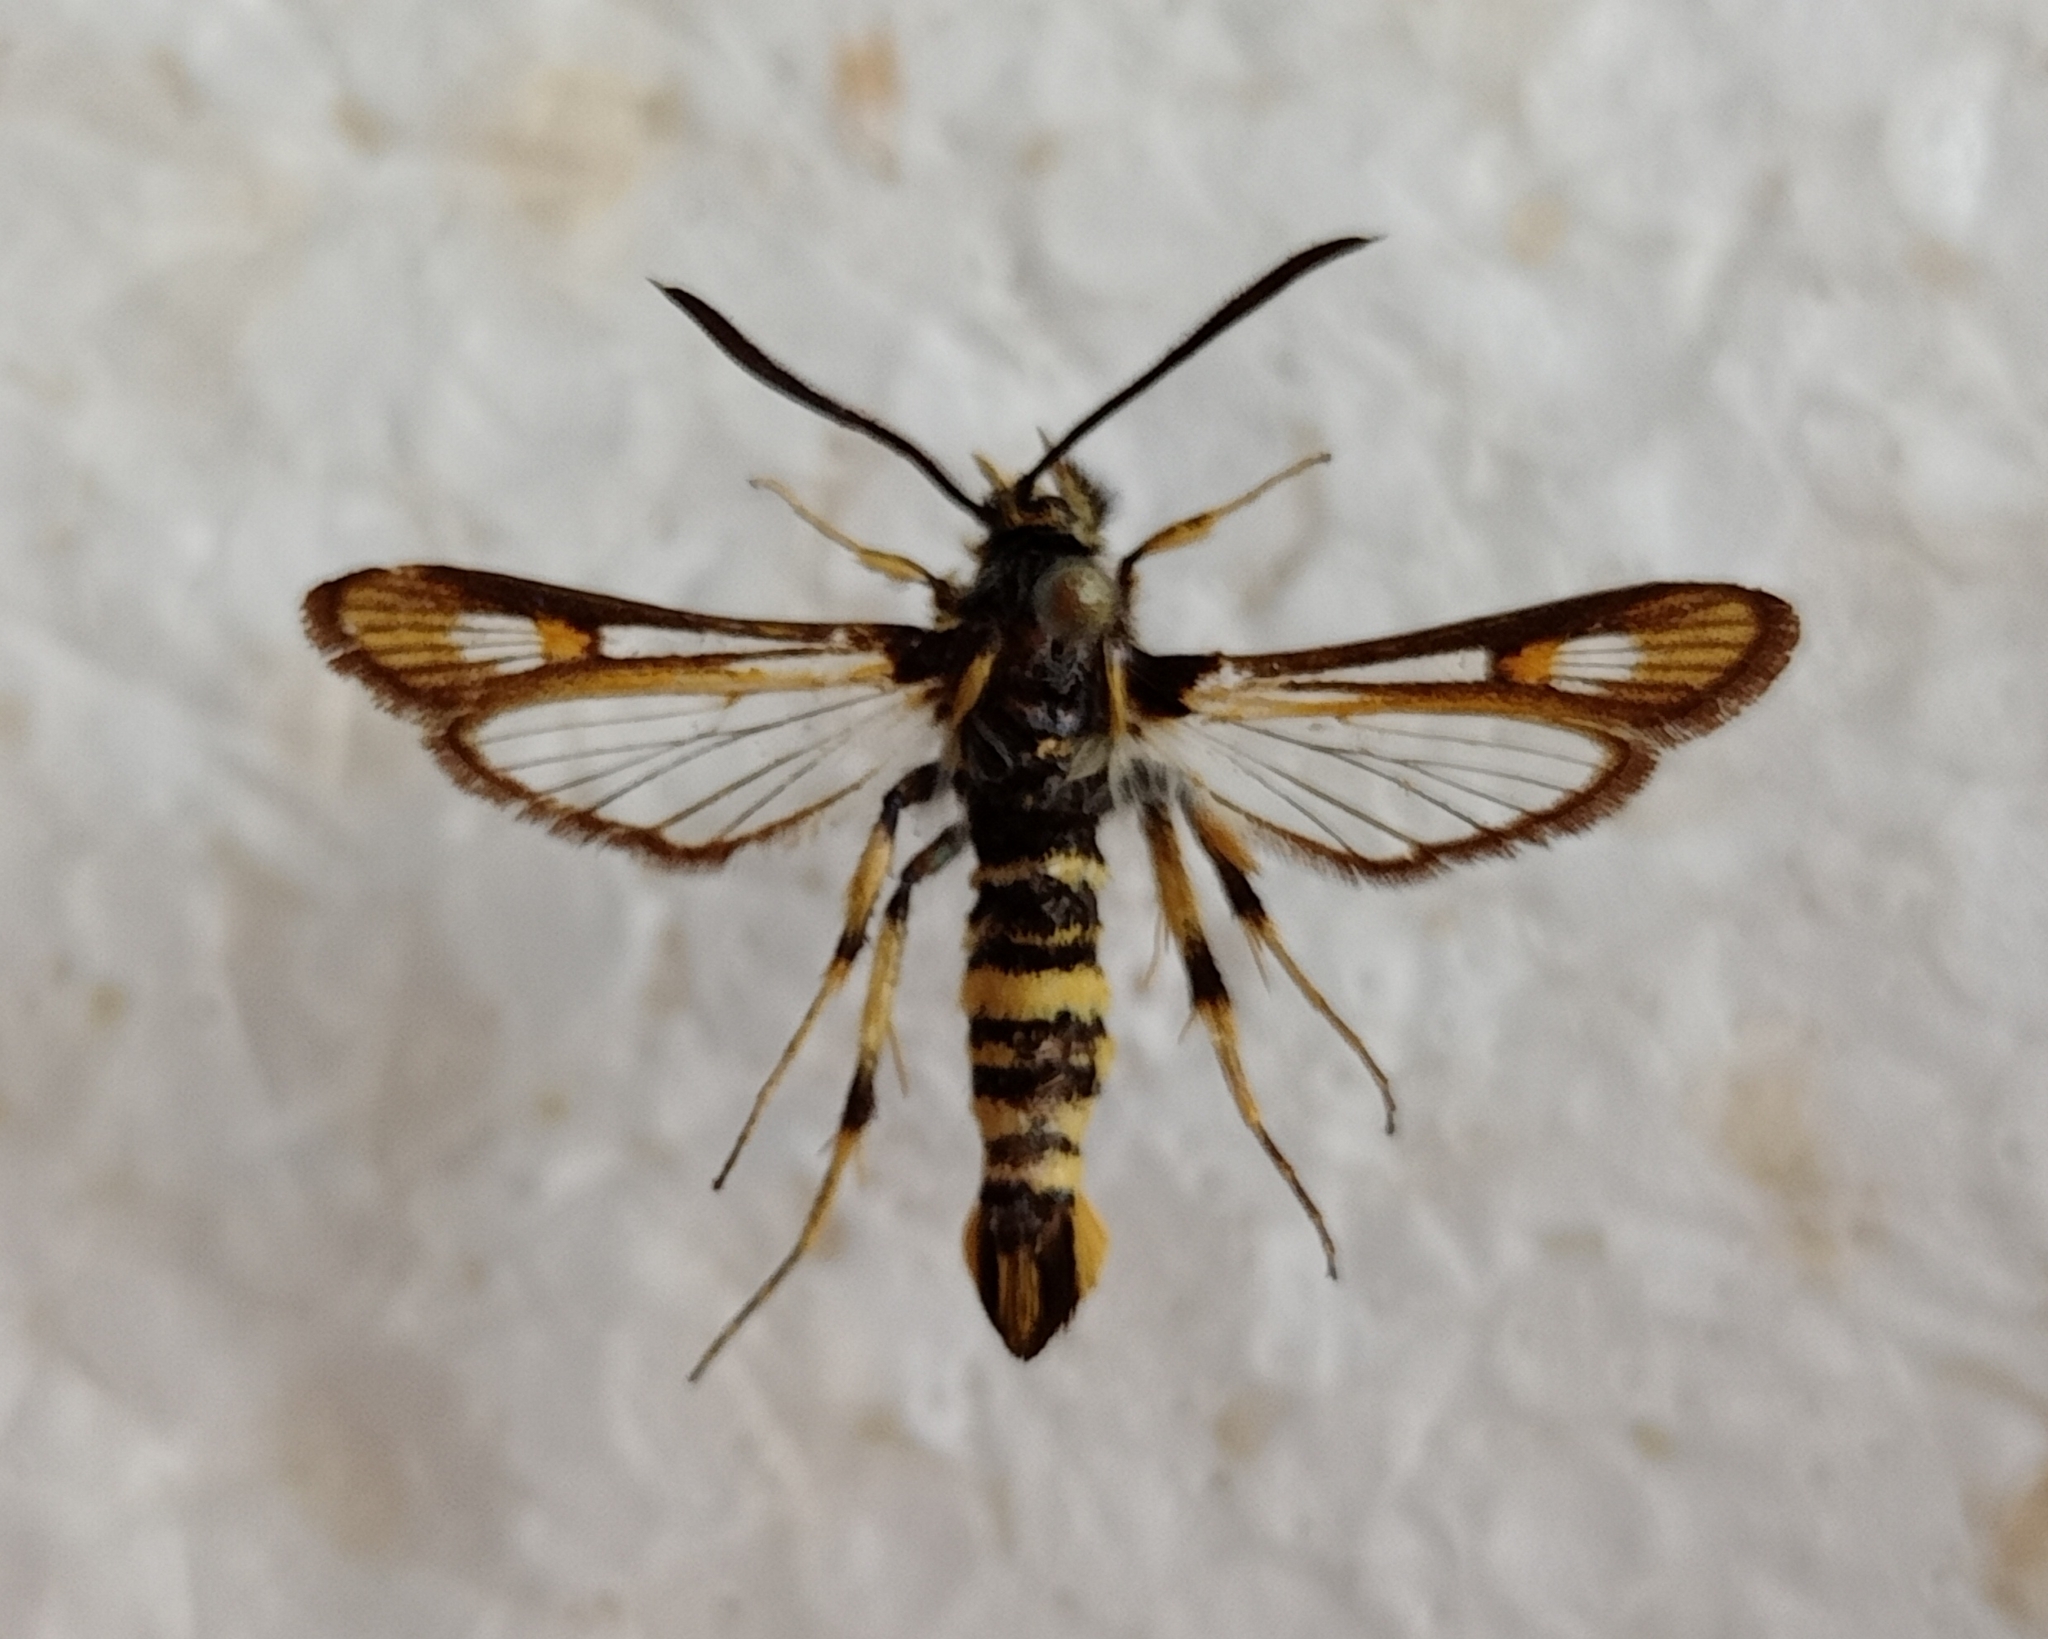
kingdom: Animalia
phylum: Arthropoda
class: Insecta
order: Lepidoptera
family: Sesiidae
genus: Bembecia
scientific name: Bembecia uroceriformis
